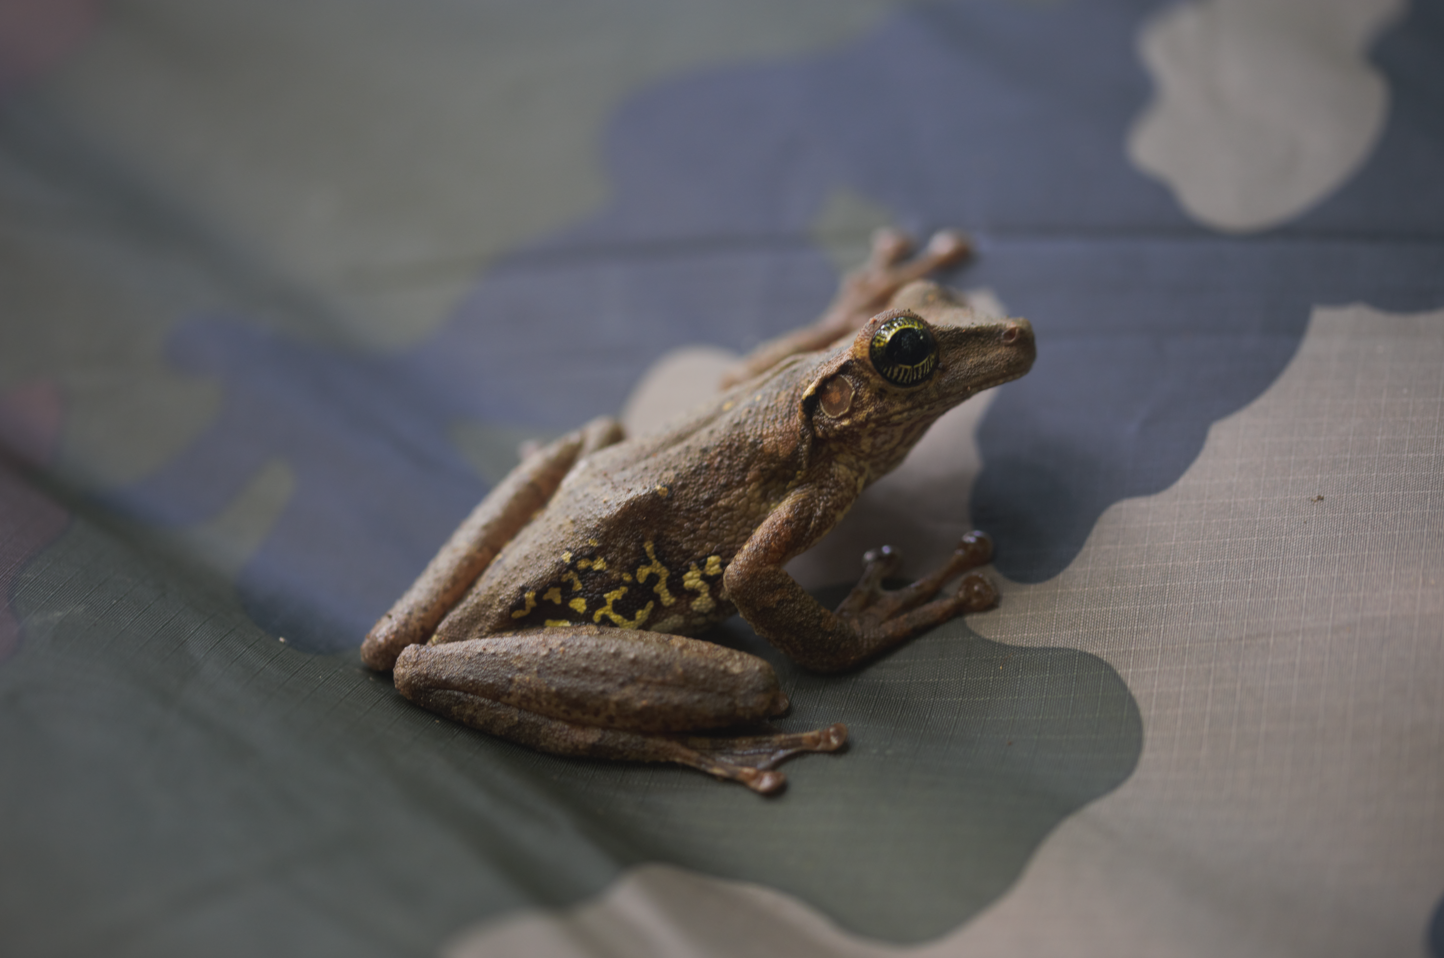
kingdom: Animalia
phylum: Chordata
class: Amphibia
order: Anura
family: Hylidae
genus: Osteocephalus
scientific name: Osteocephalus taurinus
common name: Manaus slender-legged treefrog
